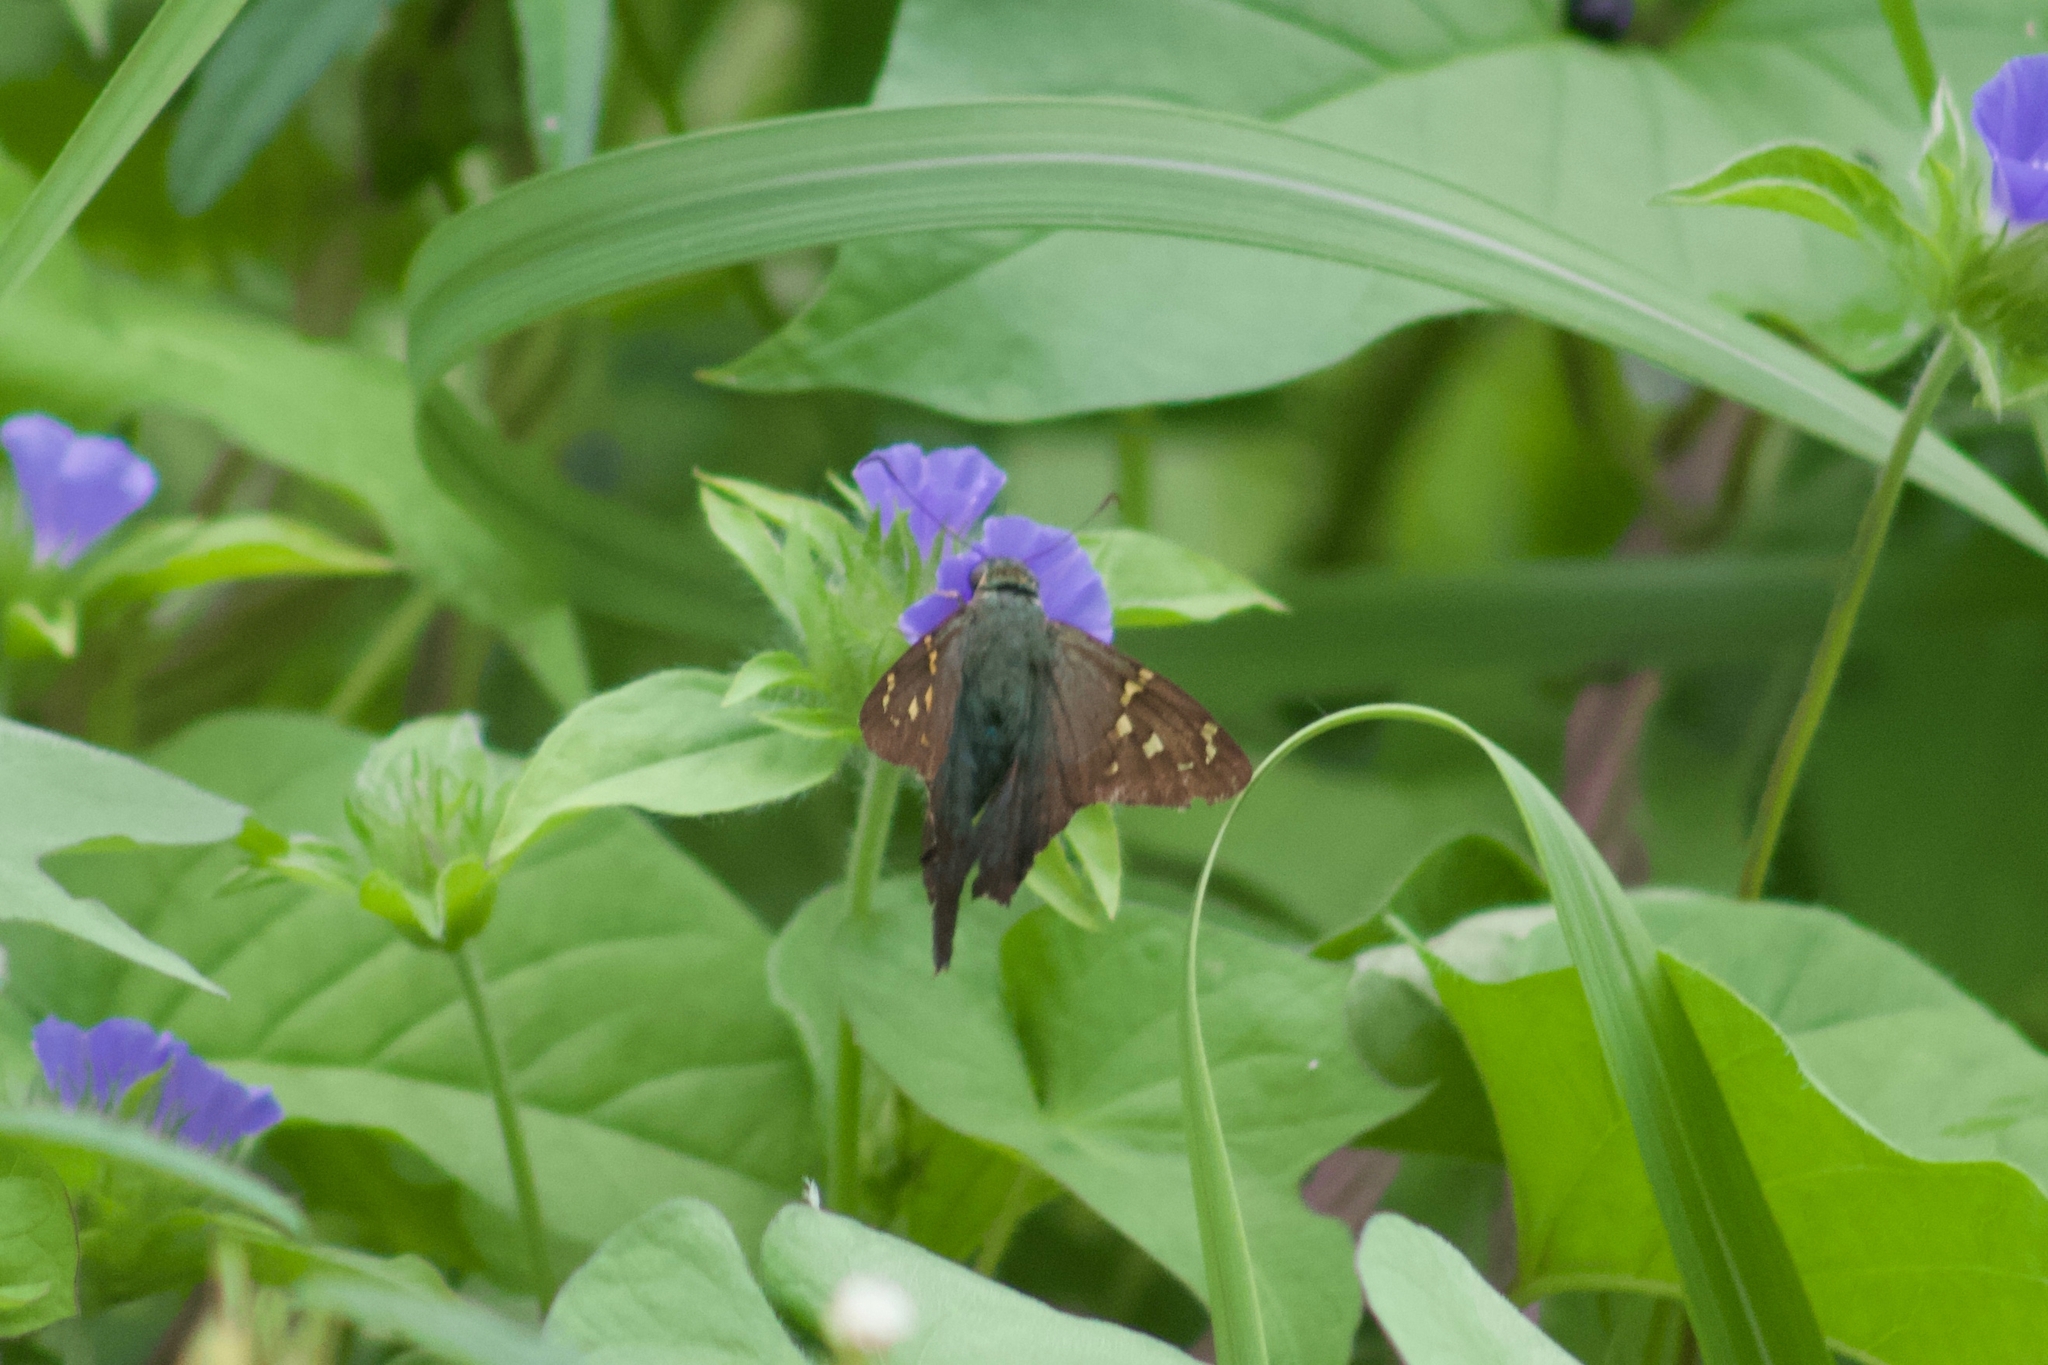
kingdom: Animalia
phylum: Arthropoda
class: Insecta
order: Lepidoptera
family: Hesperiidae
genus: Urbanus
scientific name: Urbanus proteus
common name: Long-tailed skipper
